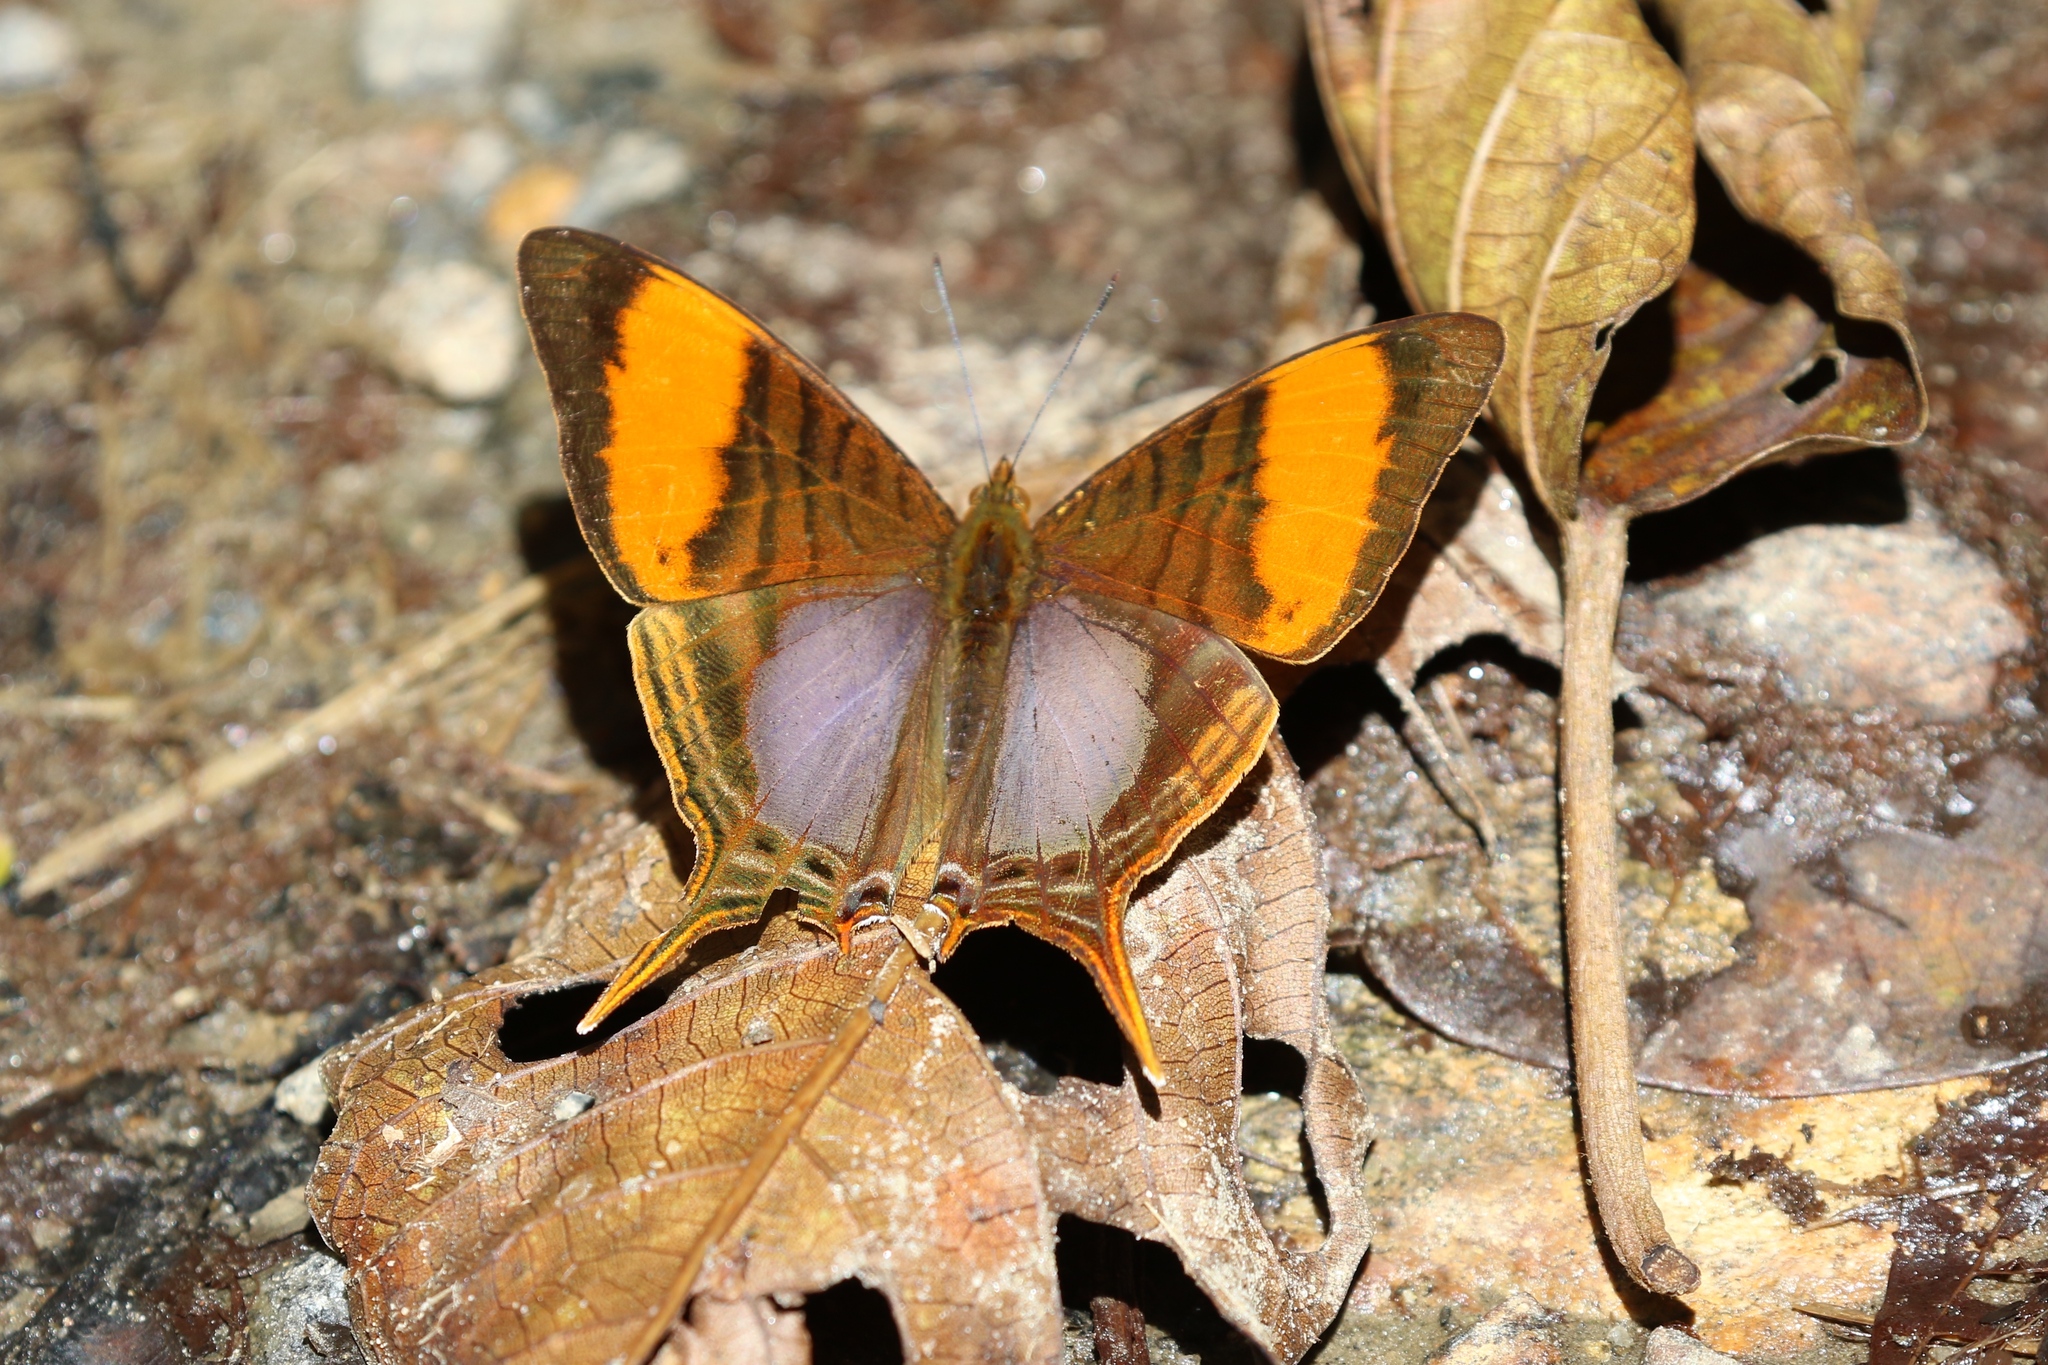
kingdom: Animalia
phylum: Arthropoda
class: Insecta
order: Lepidoptera
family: Nymphalidae
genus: Marpesia
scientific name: Marpesia corinna
